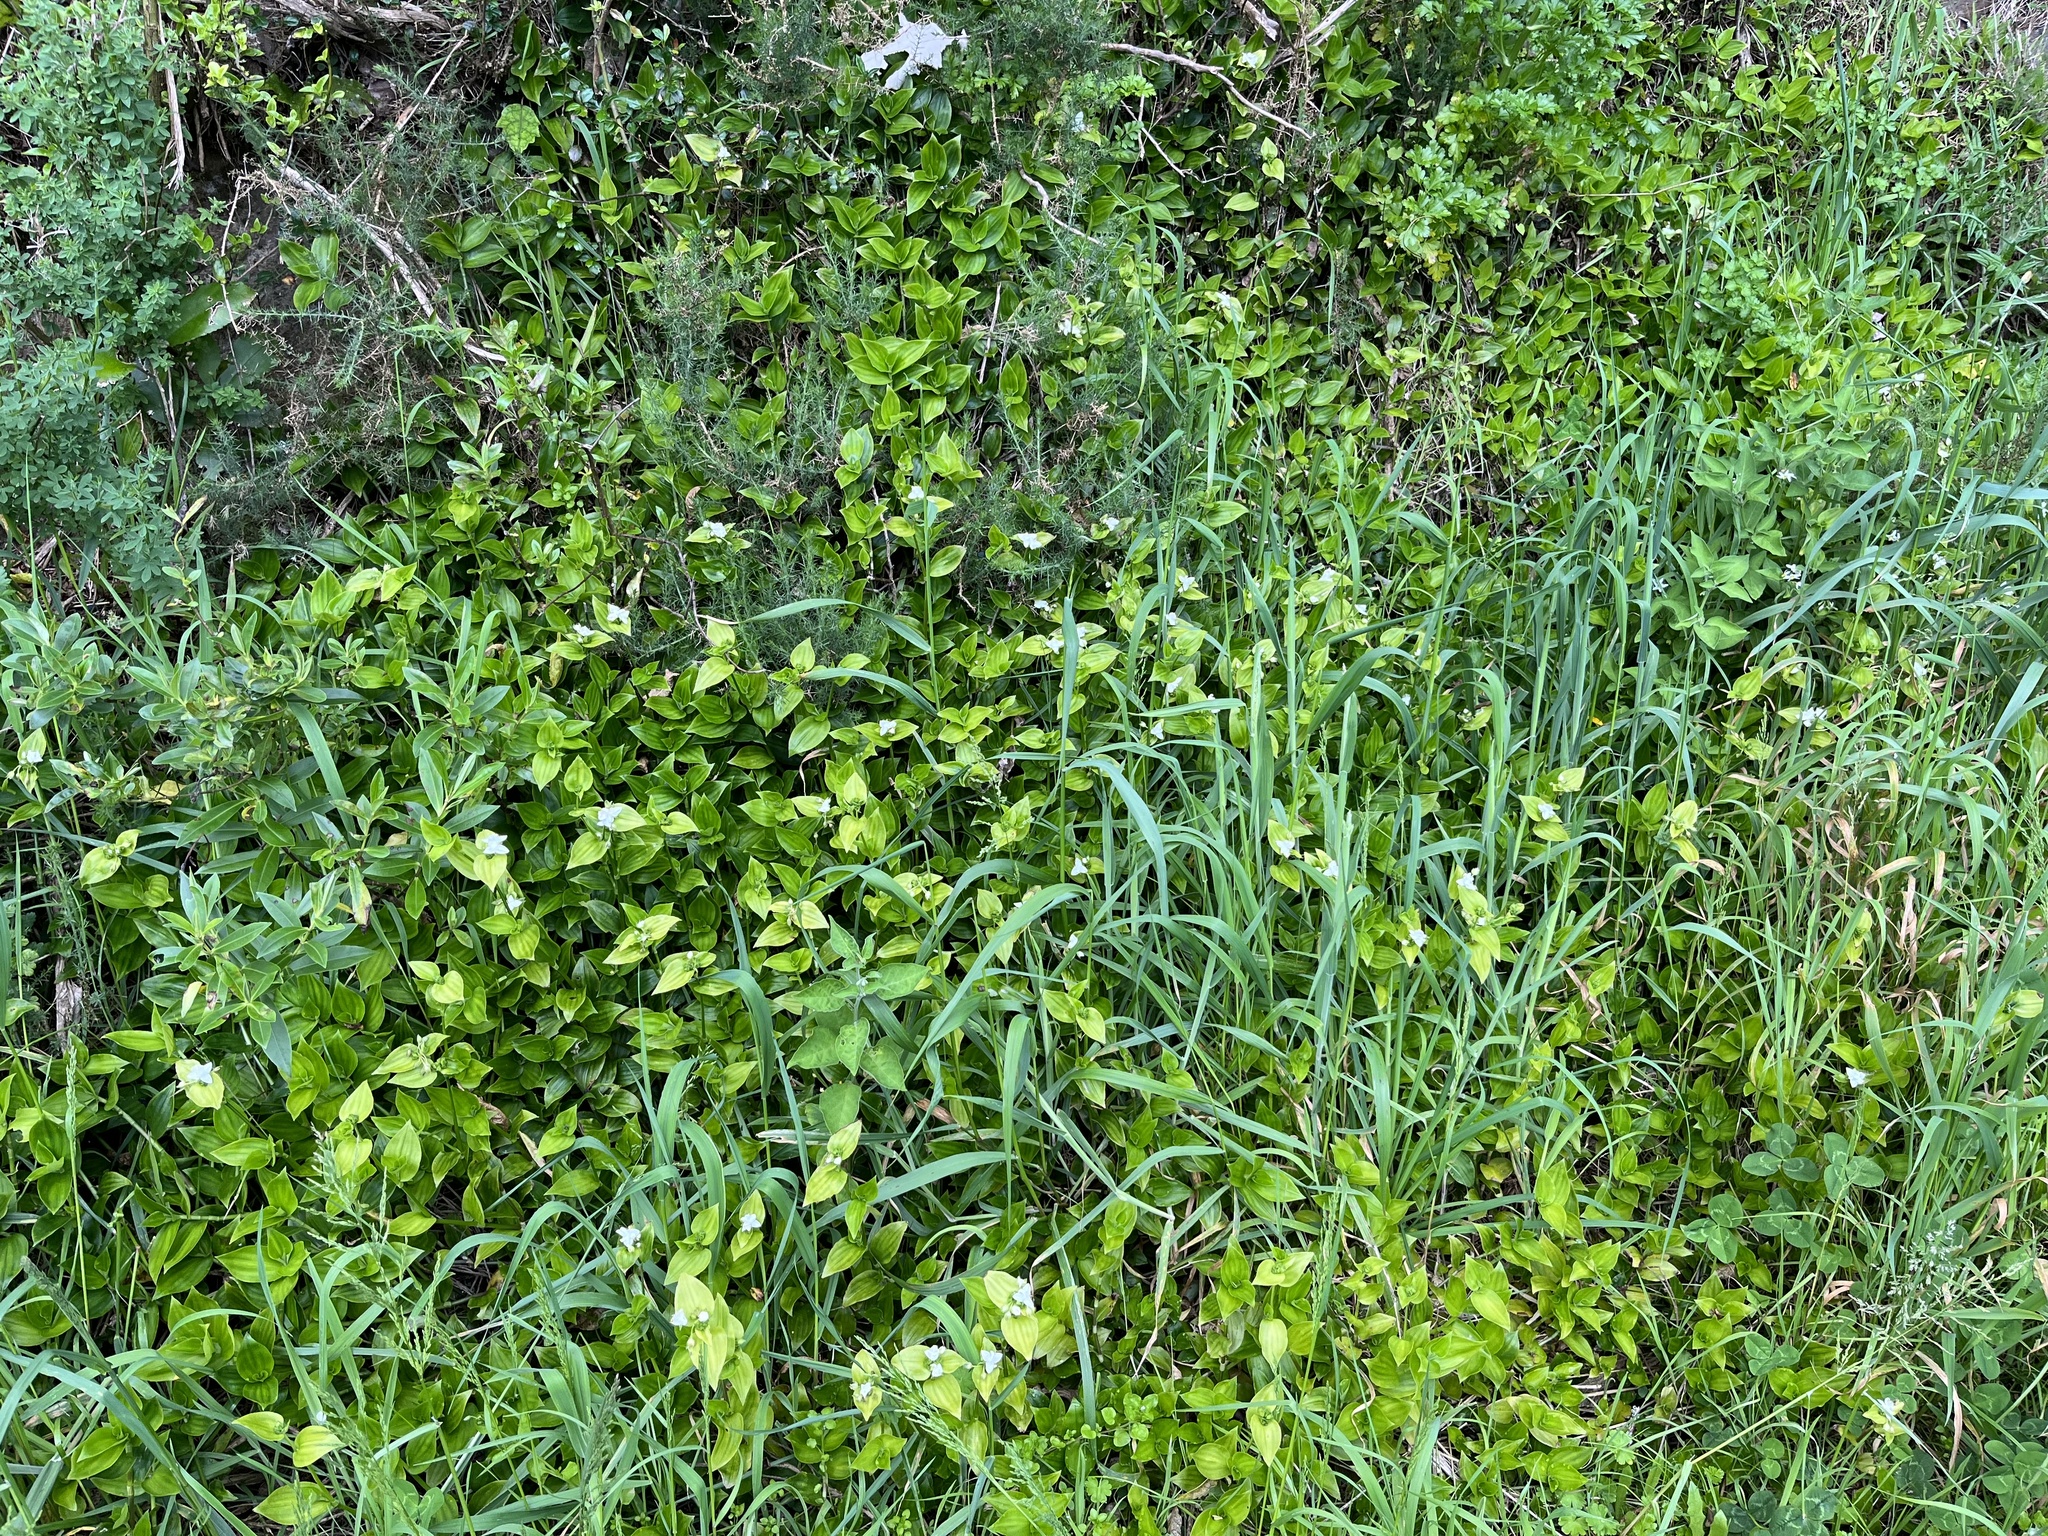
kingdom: Plantae
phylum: Tracheophyta
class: Liliopsida
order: Commelinales
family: Commelinaceae
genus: Tradescantia
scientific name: Tradescantia fluminensis
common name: Wandering-jew
